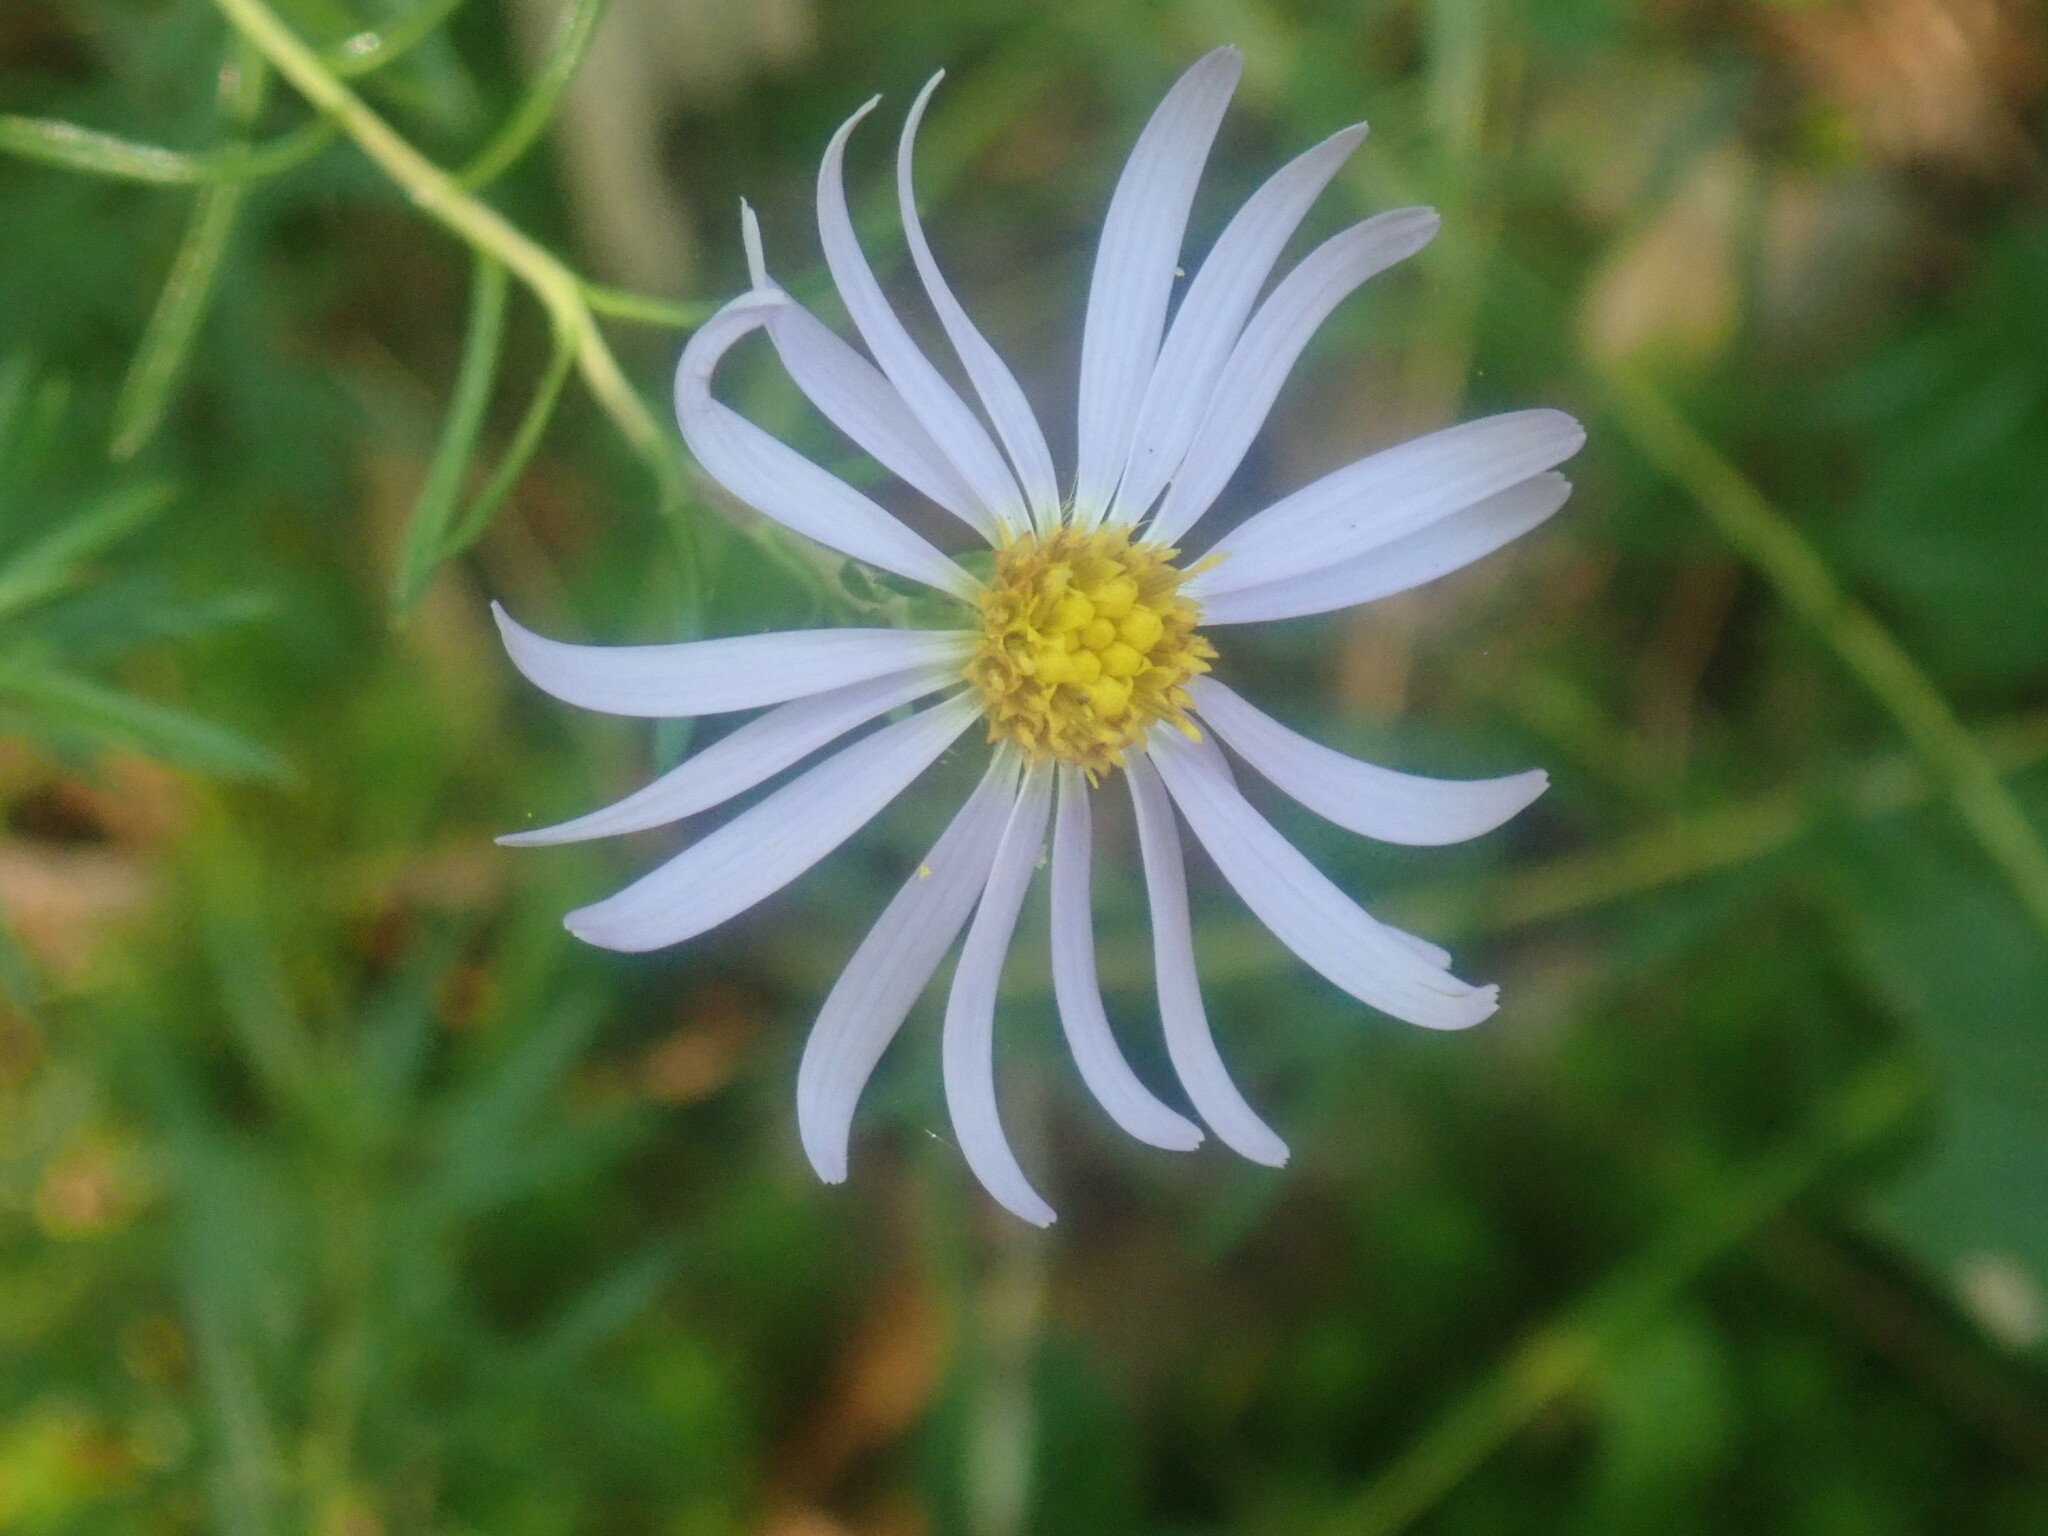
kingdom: Plantae
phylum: Tracheophyta
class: Magnoliopsida
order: Asterales
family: Asteraceae
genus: Ionactis
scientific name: Ionactis linariifolia
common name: Flax-leaf aster
